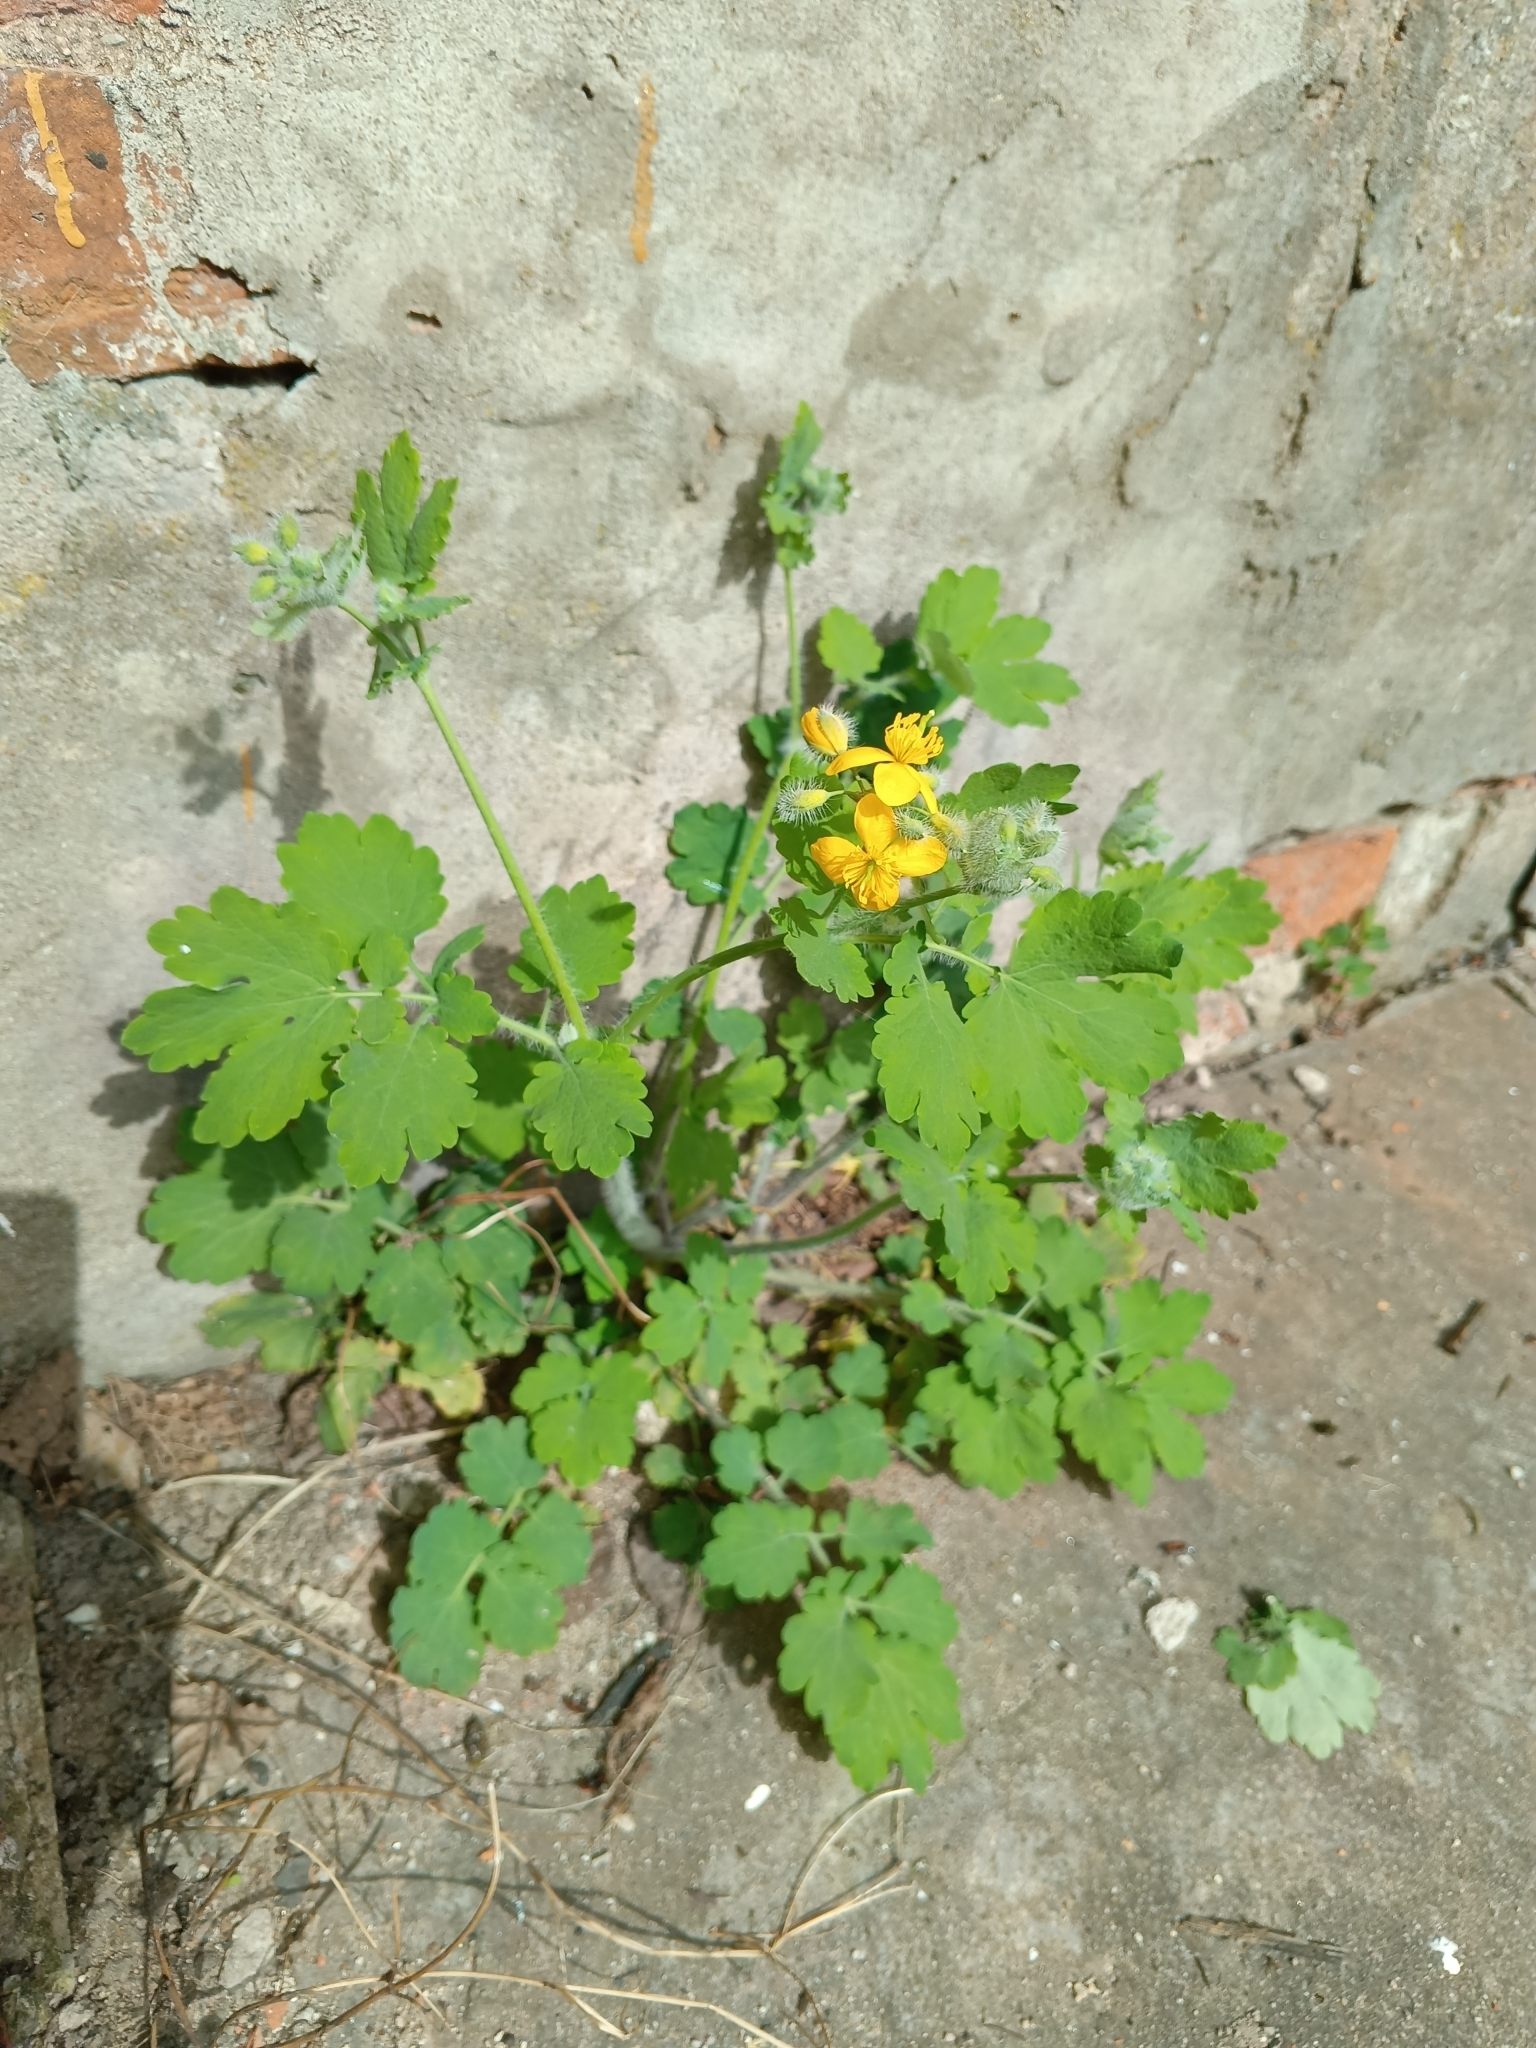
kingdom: Plantae
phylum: Tracheophyta
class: Magnoliopsida
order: Ranunculales
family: Papaveraceae
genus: Chelidonium
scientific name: Chelidonium majus
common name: Greater celandine
